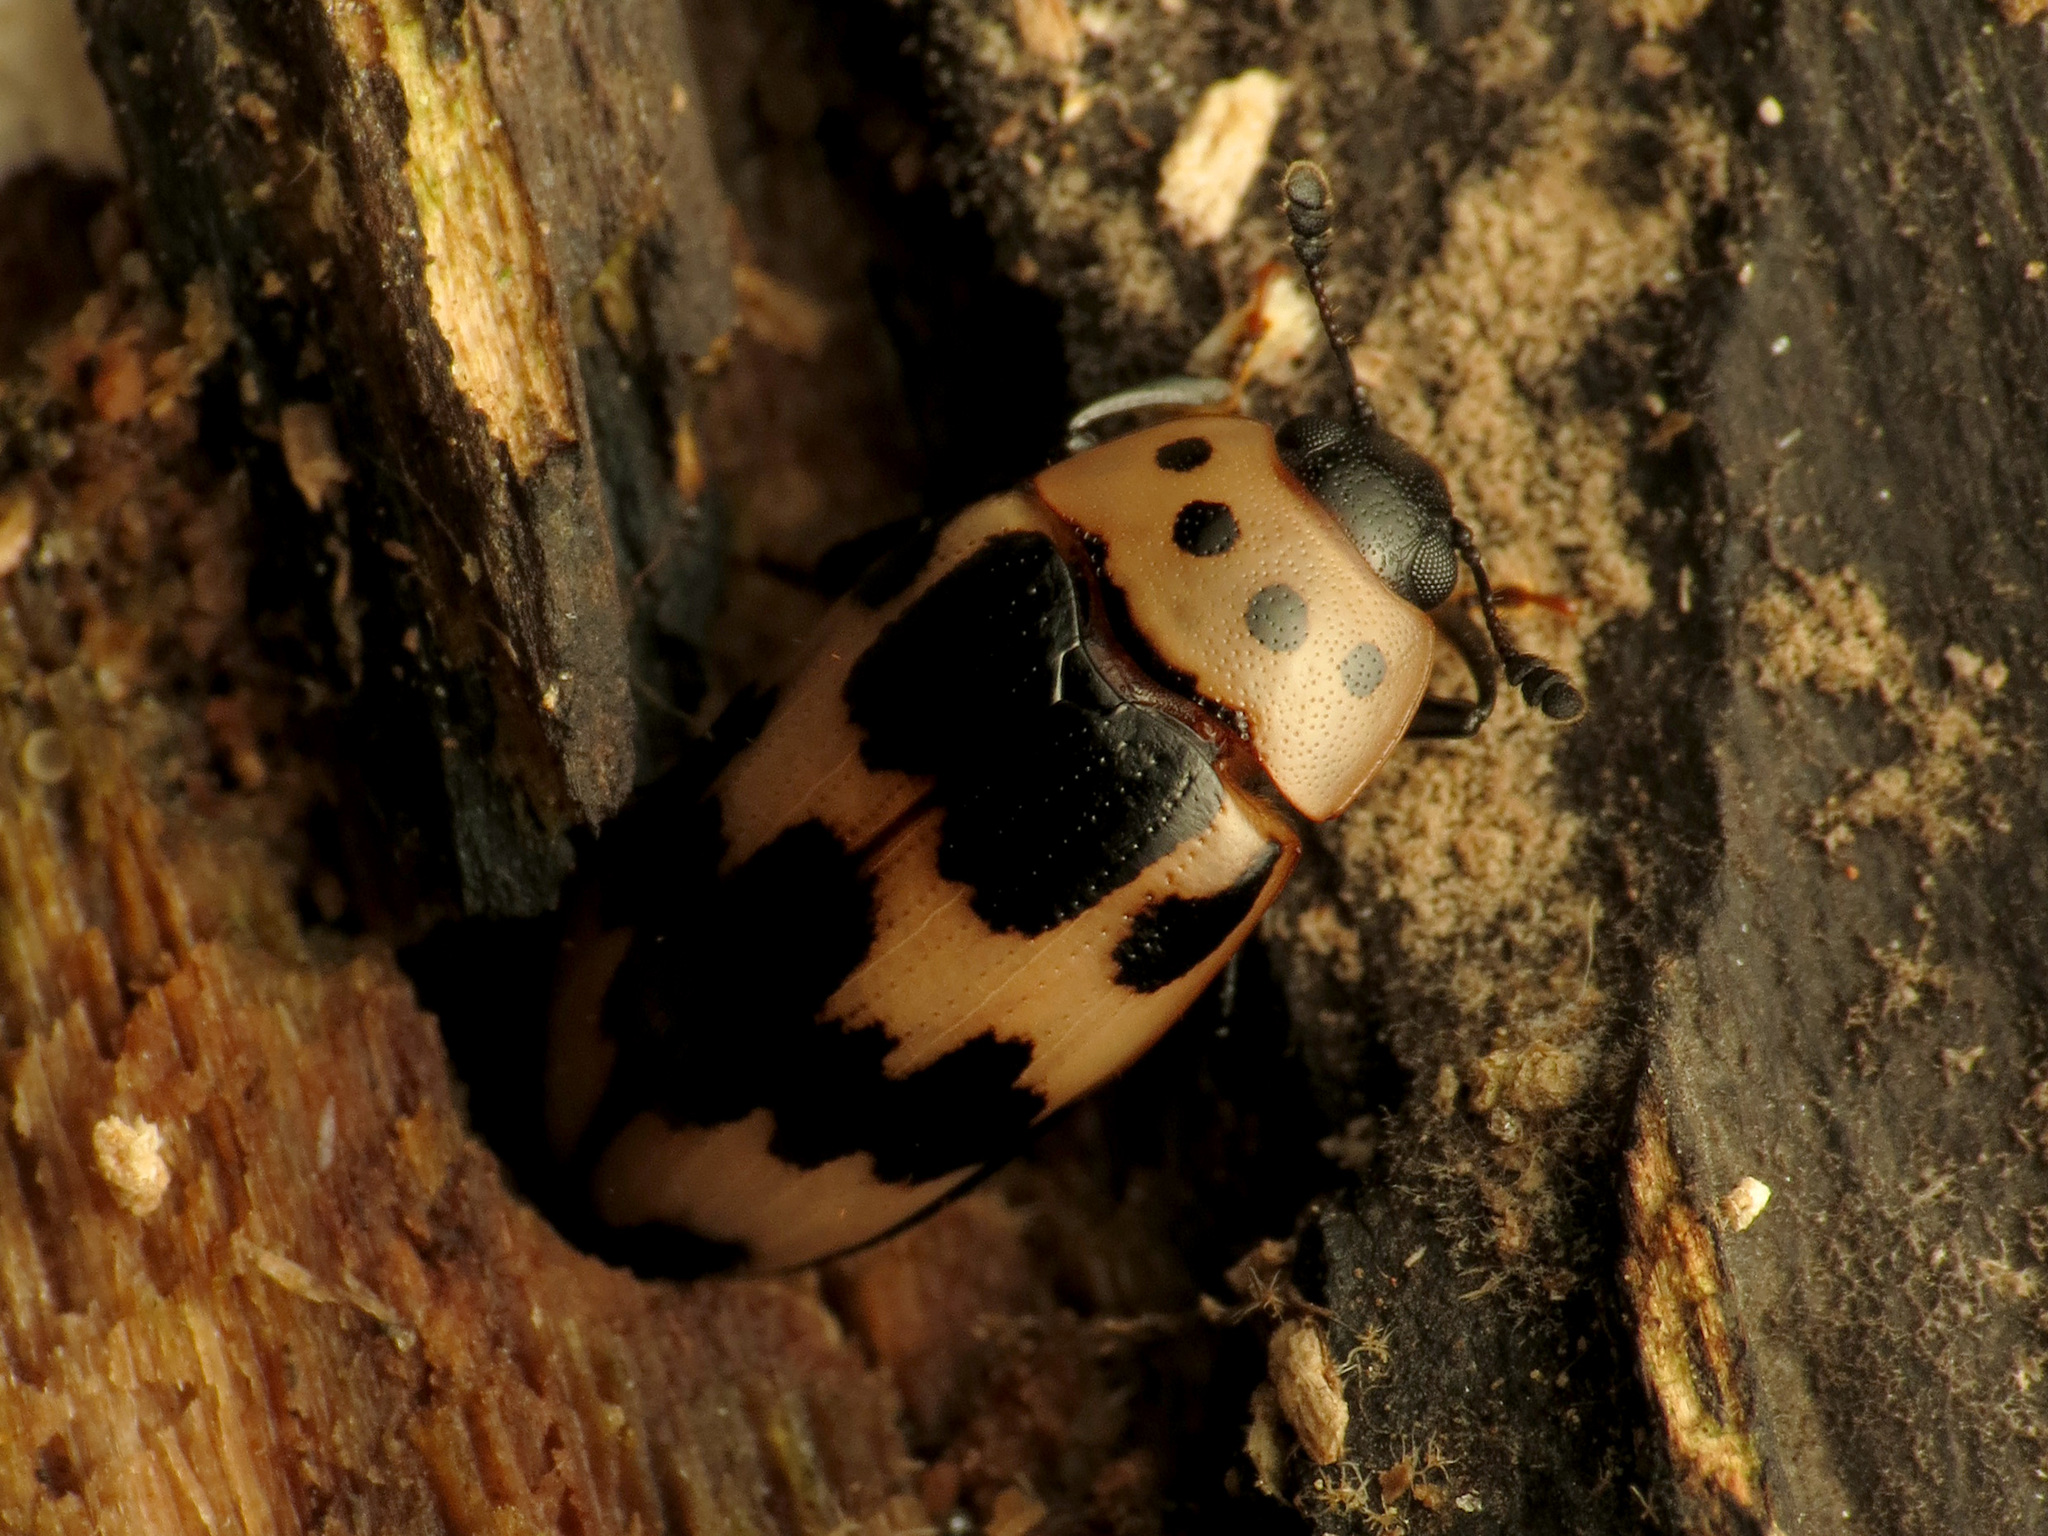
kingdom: Animalia
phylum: Arthropoda
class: Insecta
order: Coleoptera
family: Erotylidae
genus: Ischyrus
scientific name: Ischyrus quadripunctatus
